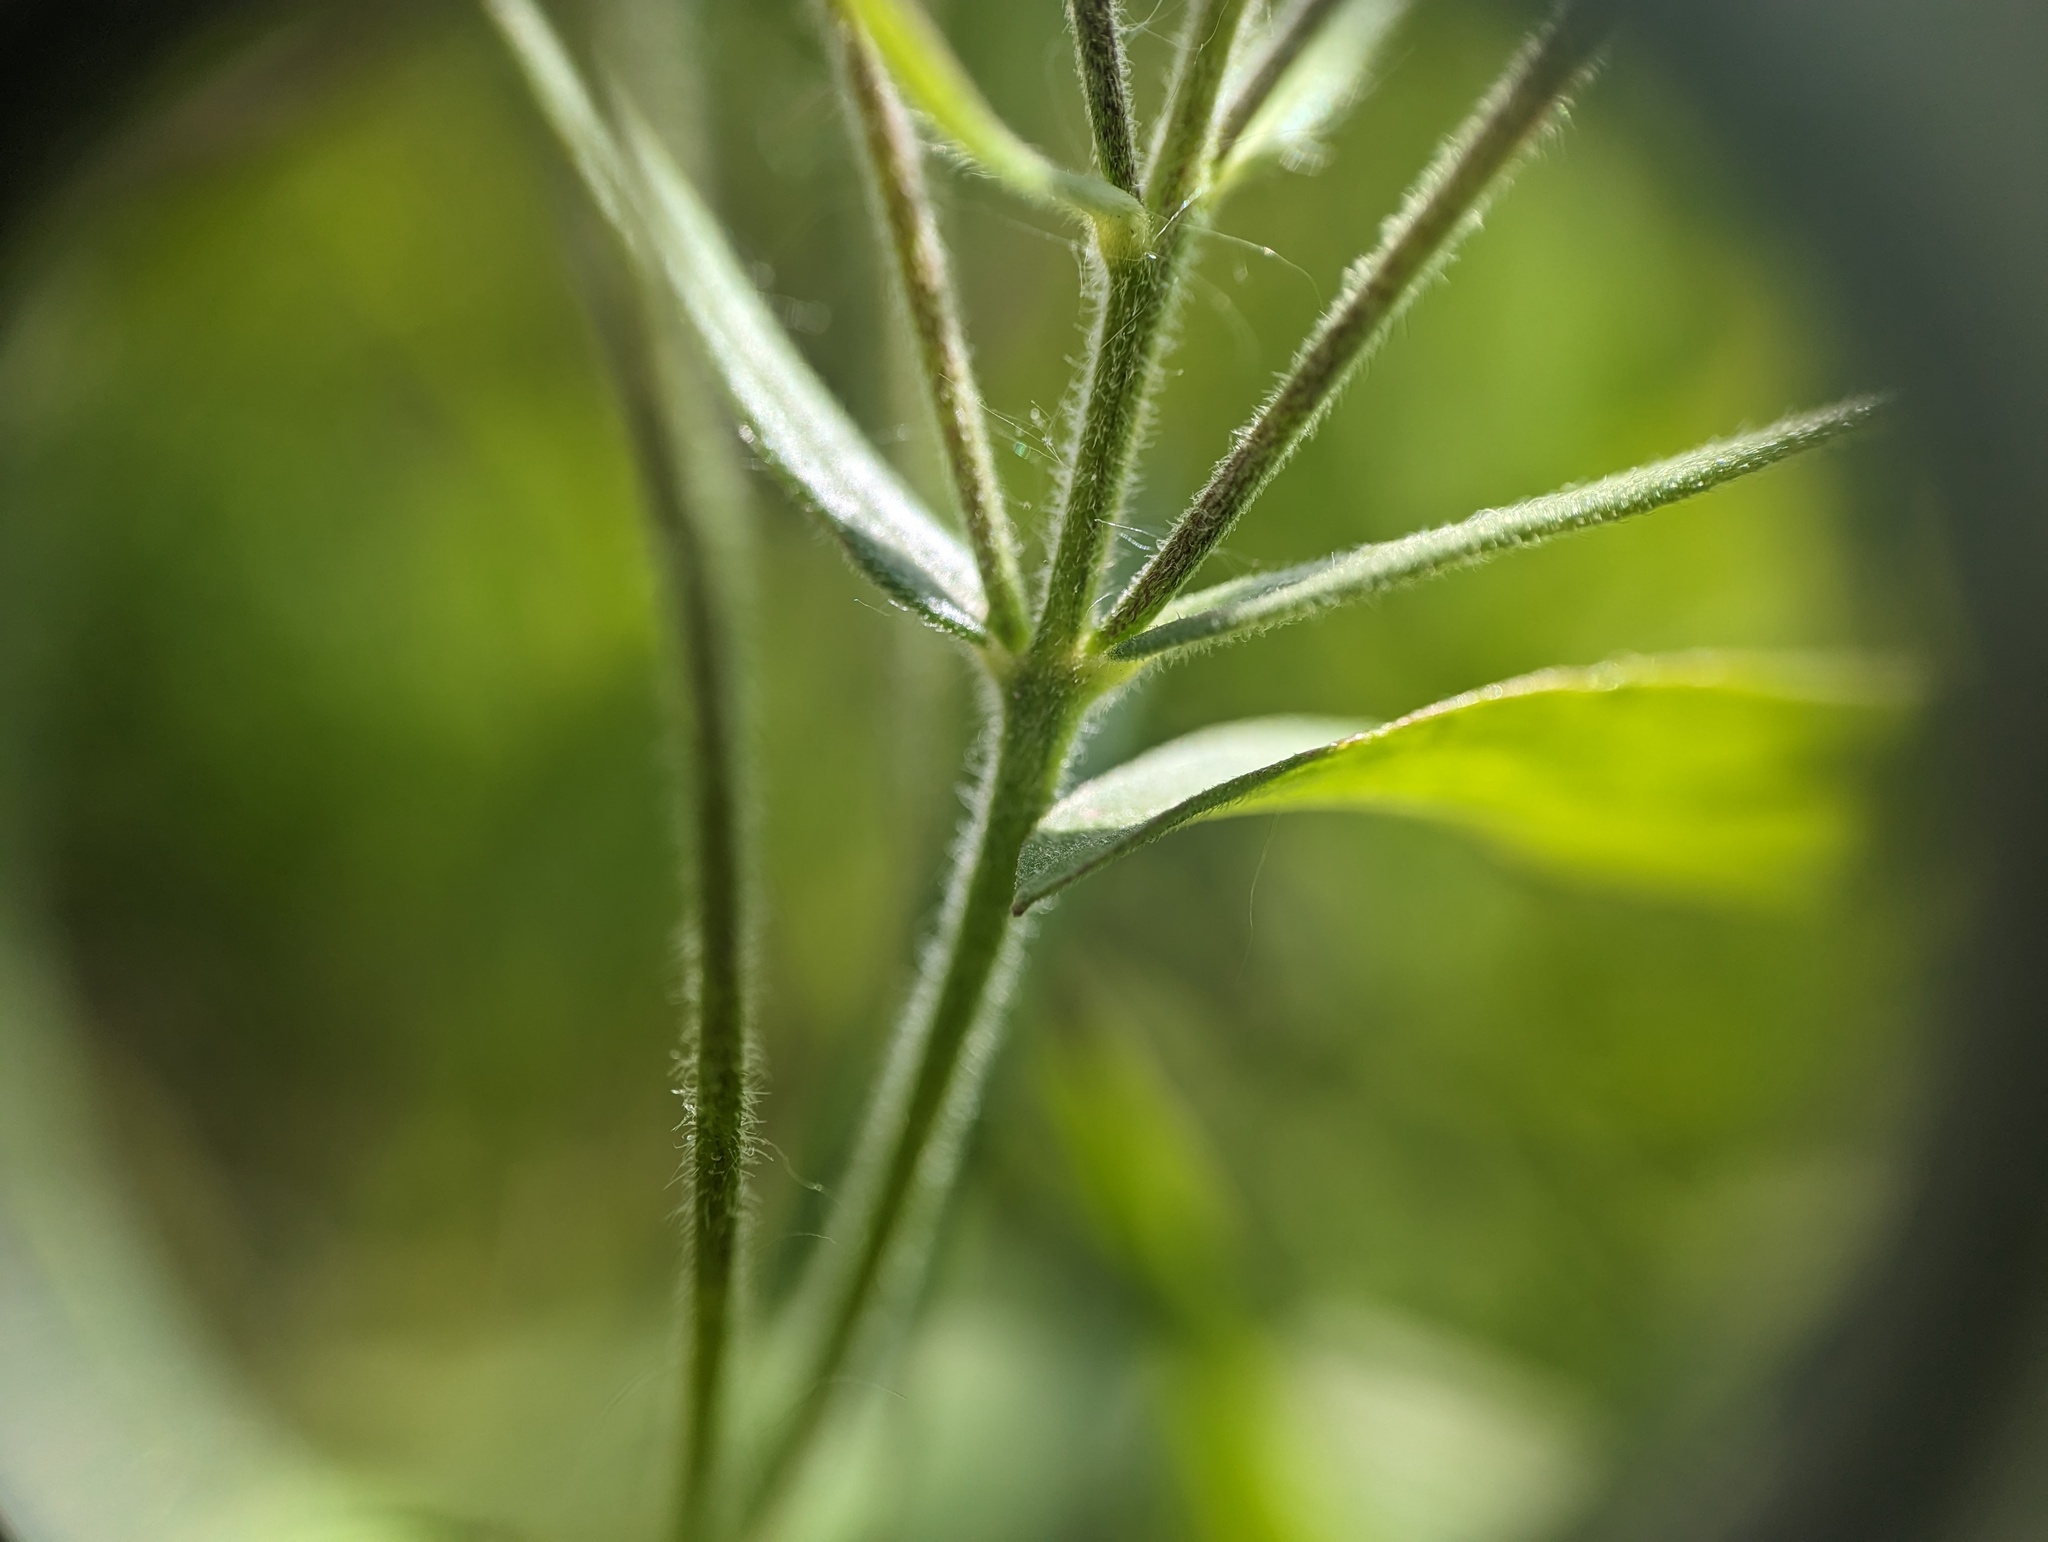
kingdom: Plantae
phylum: Tracheophyta
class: Magnoliopsida
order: Ericales
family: Polemoniaceae
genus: Phlox
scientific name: Phlox pilosa
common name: Prairie phlox
